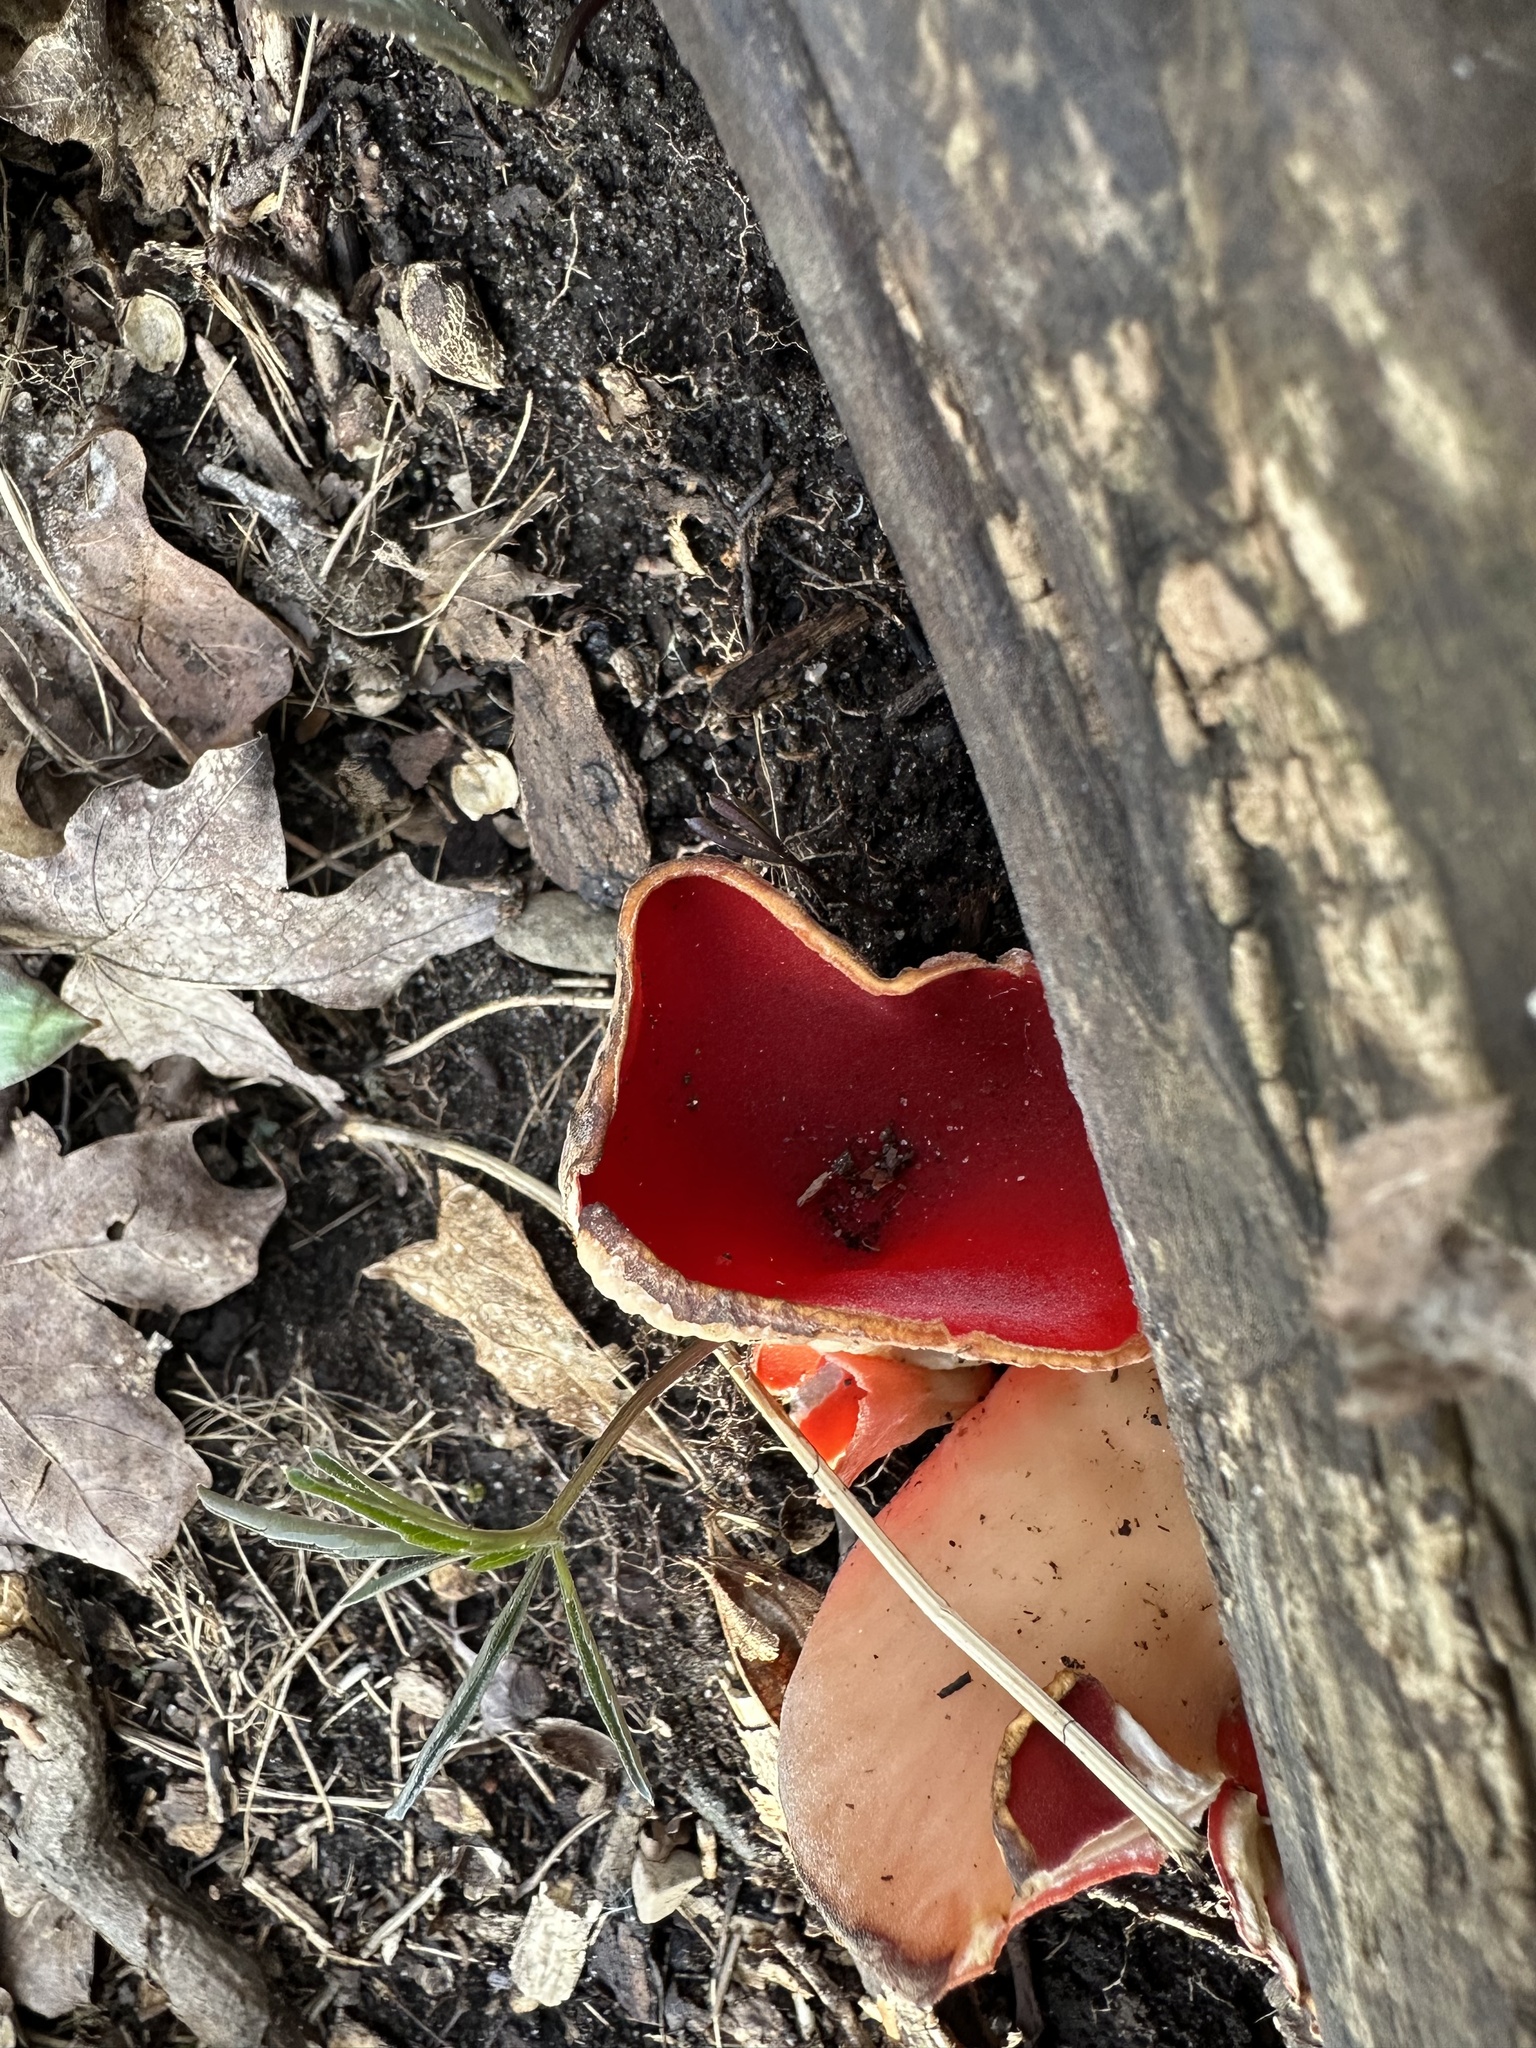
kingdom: Fungi
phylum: Ascomycota
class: Pezizomycetes
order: Pezizales
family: Sarcoscyphaceae
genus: Sarcoscypha
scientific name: Sarcoscypha austriaca
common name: Scarlet elfcup
